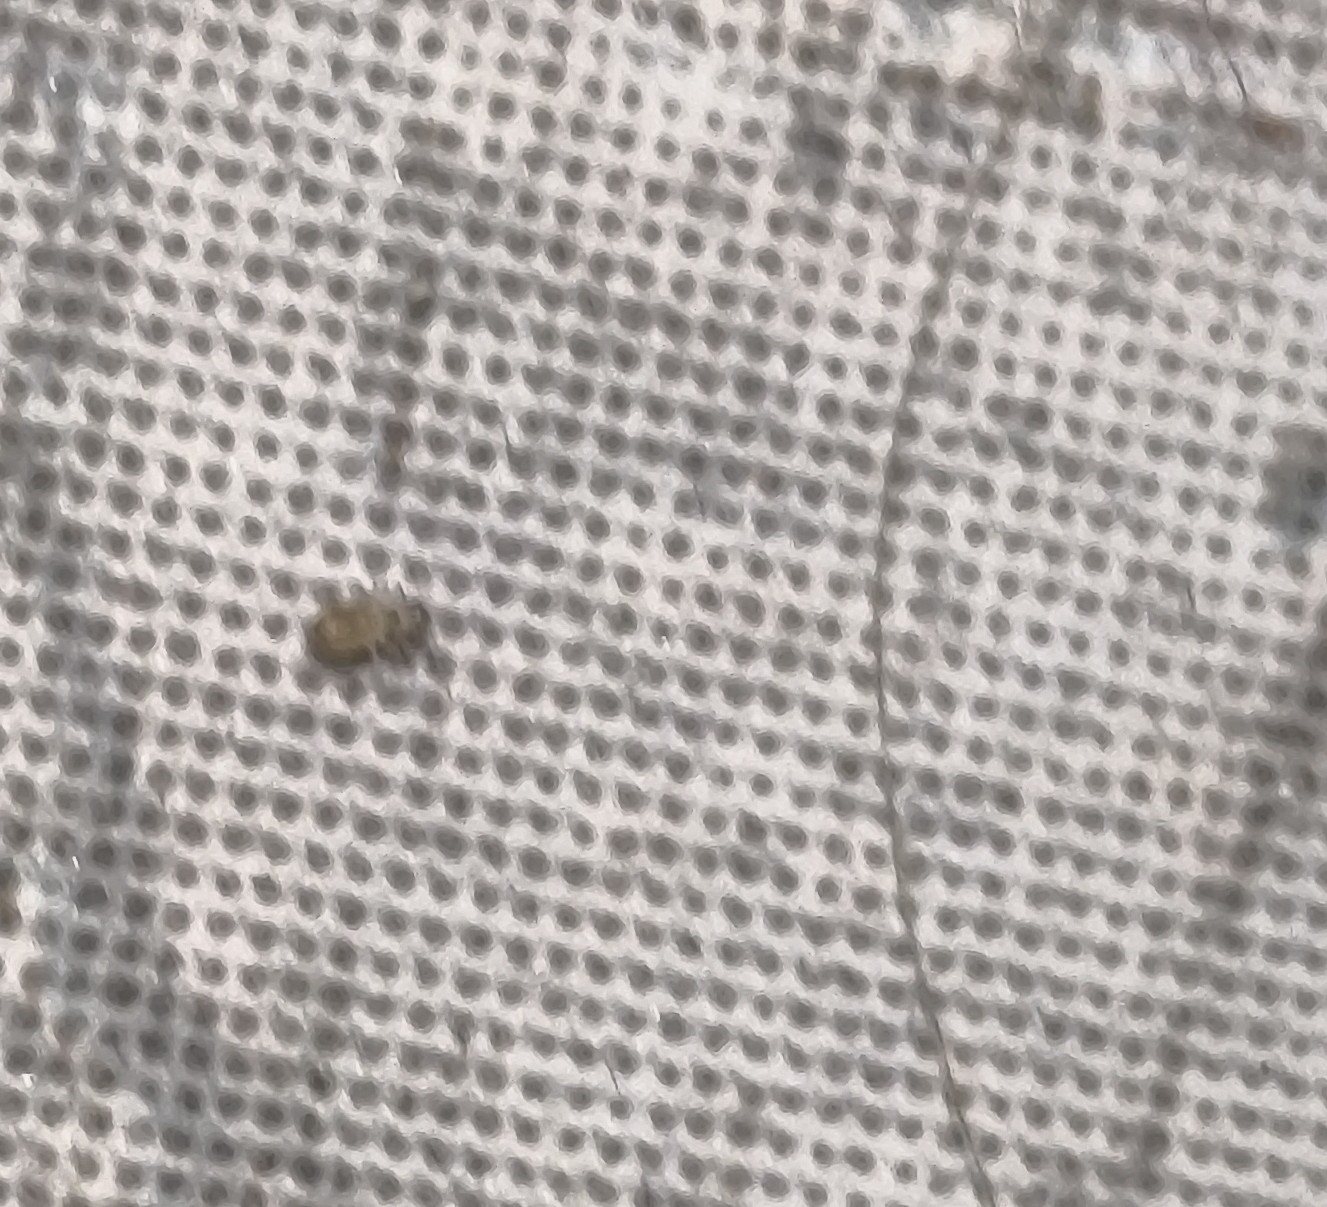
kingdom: Animalia
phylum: Arthropoda
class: Insecta
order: Psocodea
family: Psyllipsocidae
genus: Dorypteryx
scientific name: Dorypteryx domestica
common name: Cave barklouse
